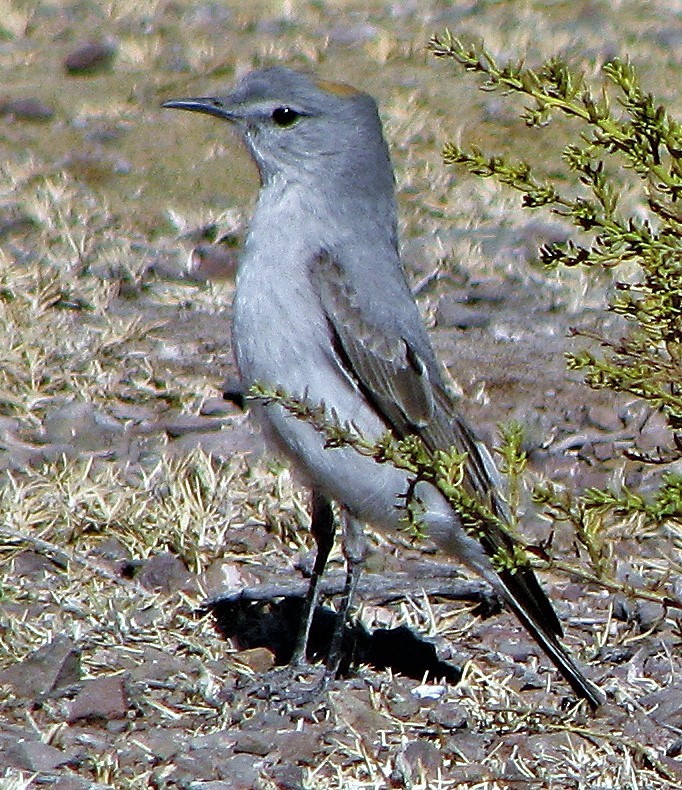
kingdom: Animalia
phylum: Chordata
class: Aves
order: Passeriformes
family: Tyrannidae
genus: Muscisaxicola
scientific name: Muscisaxicola rufivertex
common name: Rufous-naped ground tyrant
